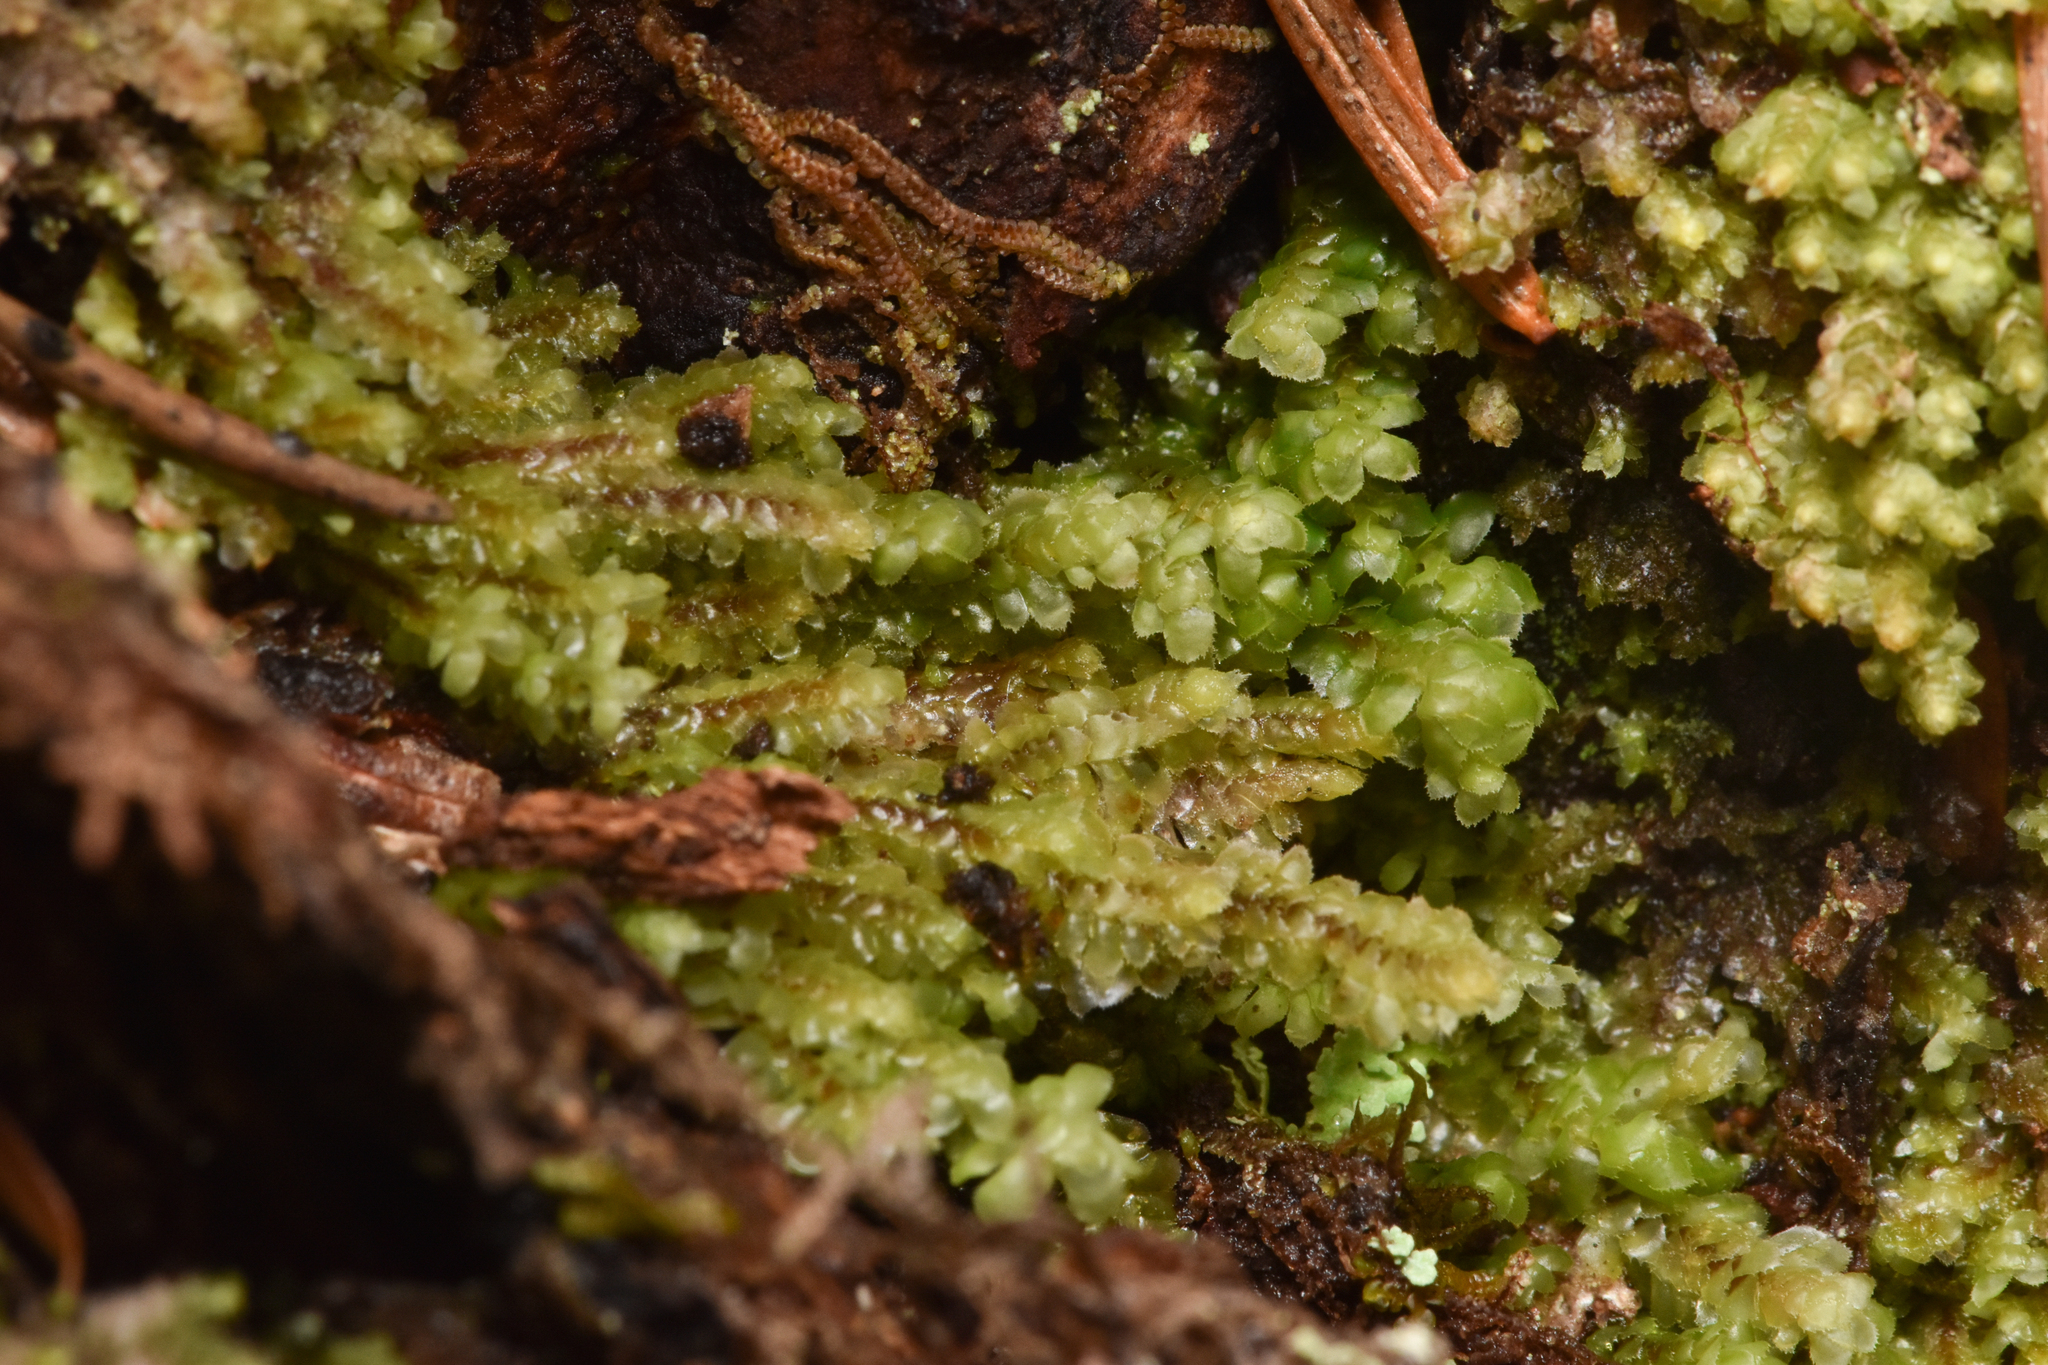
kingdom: Plantae
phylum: Marchantiophyta
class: Jungermanniopsida
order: Jungermanniales
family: Scapaniaceae
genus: Scapania
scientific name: Scapania bolanderi
